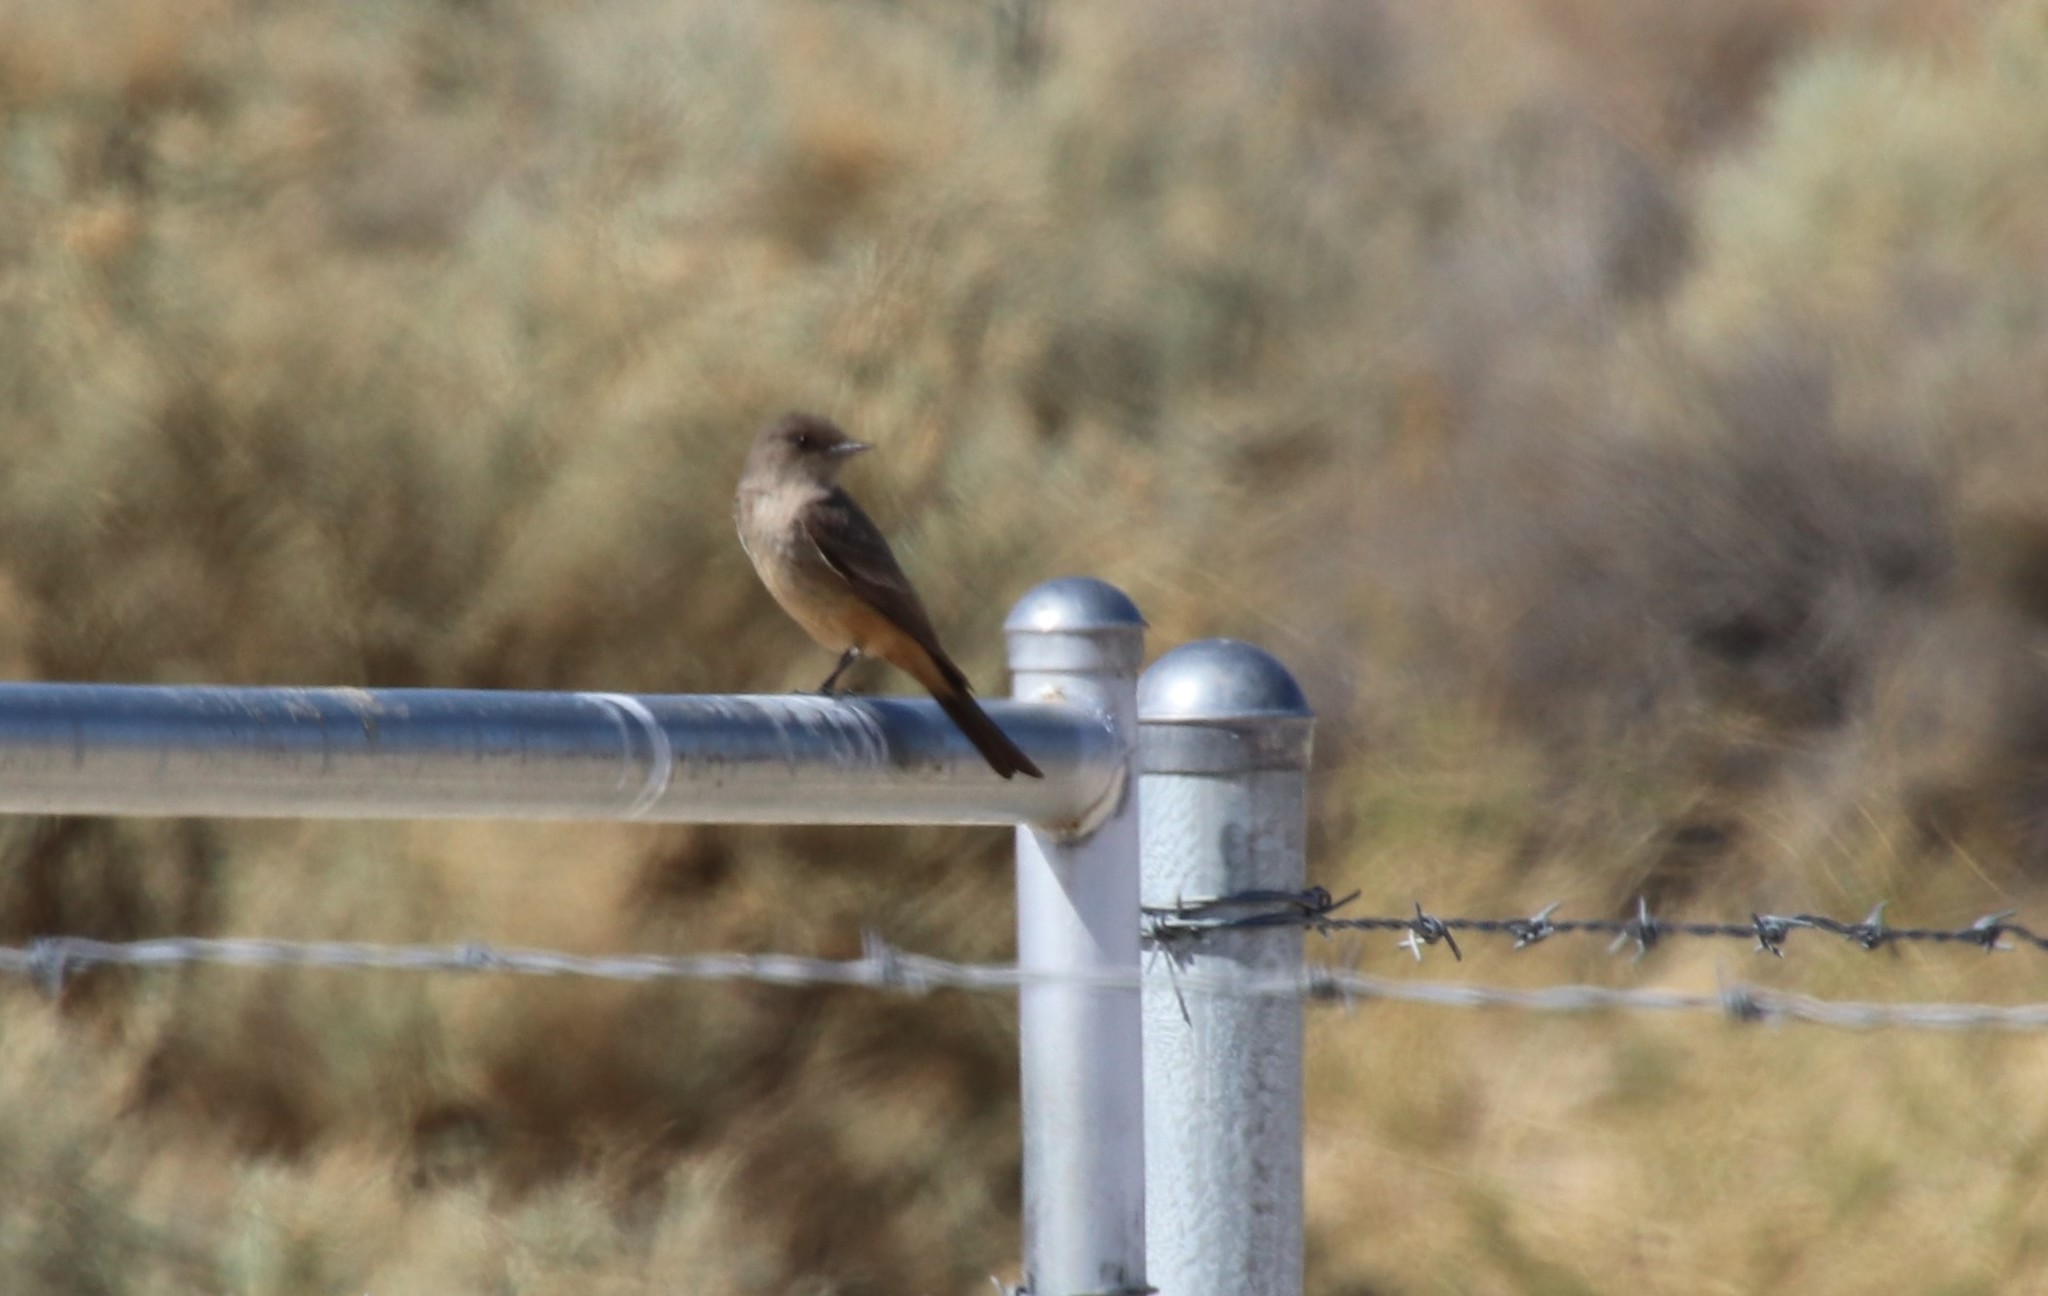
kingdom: Animalia
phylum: Chordata
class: Aves
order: Passeriformes
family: Tyrannidae
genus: Sayornis
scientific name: Sayornis saya
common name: Say's phoebe
